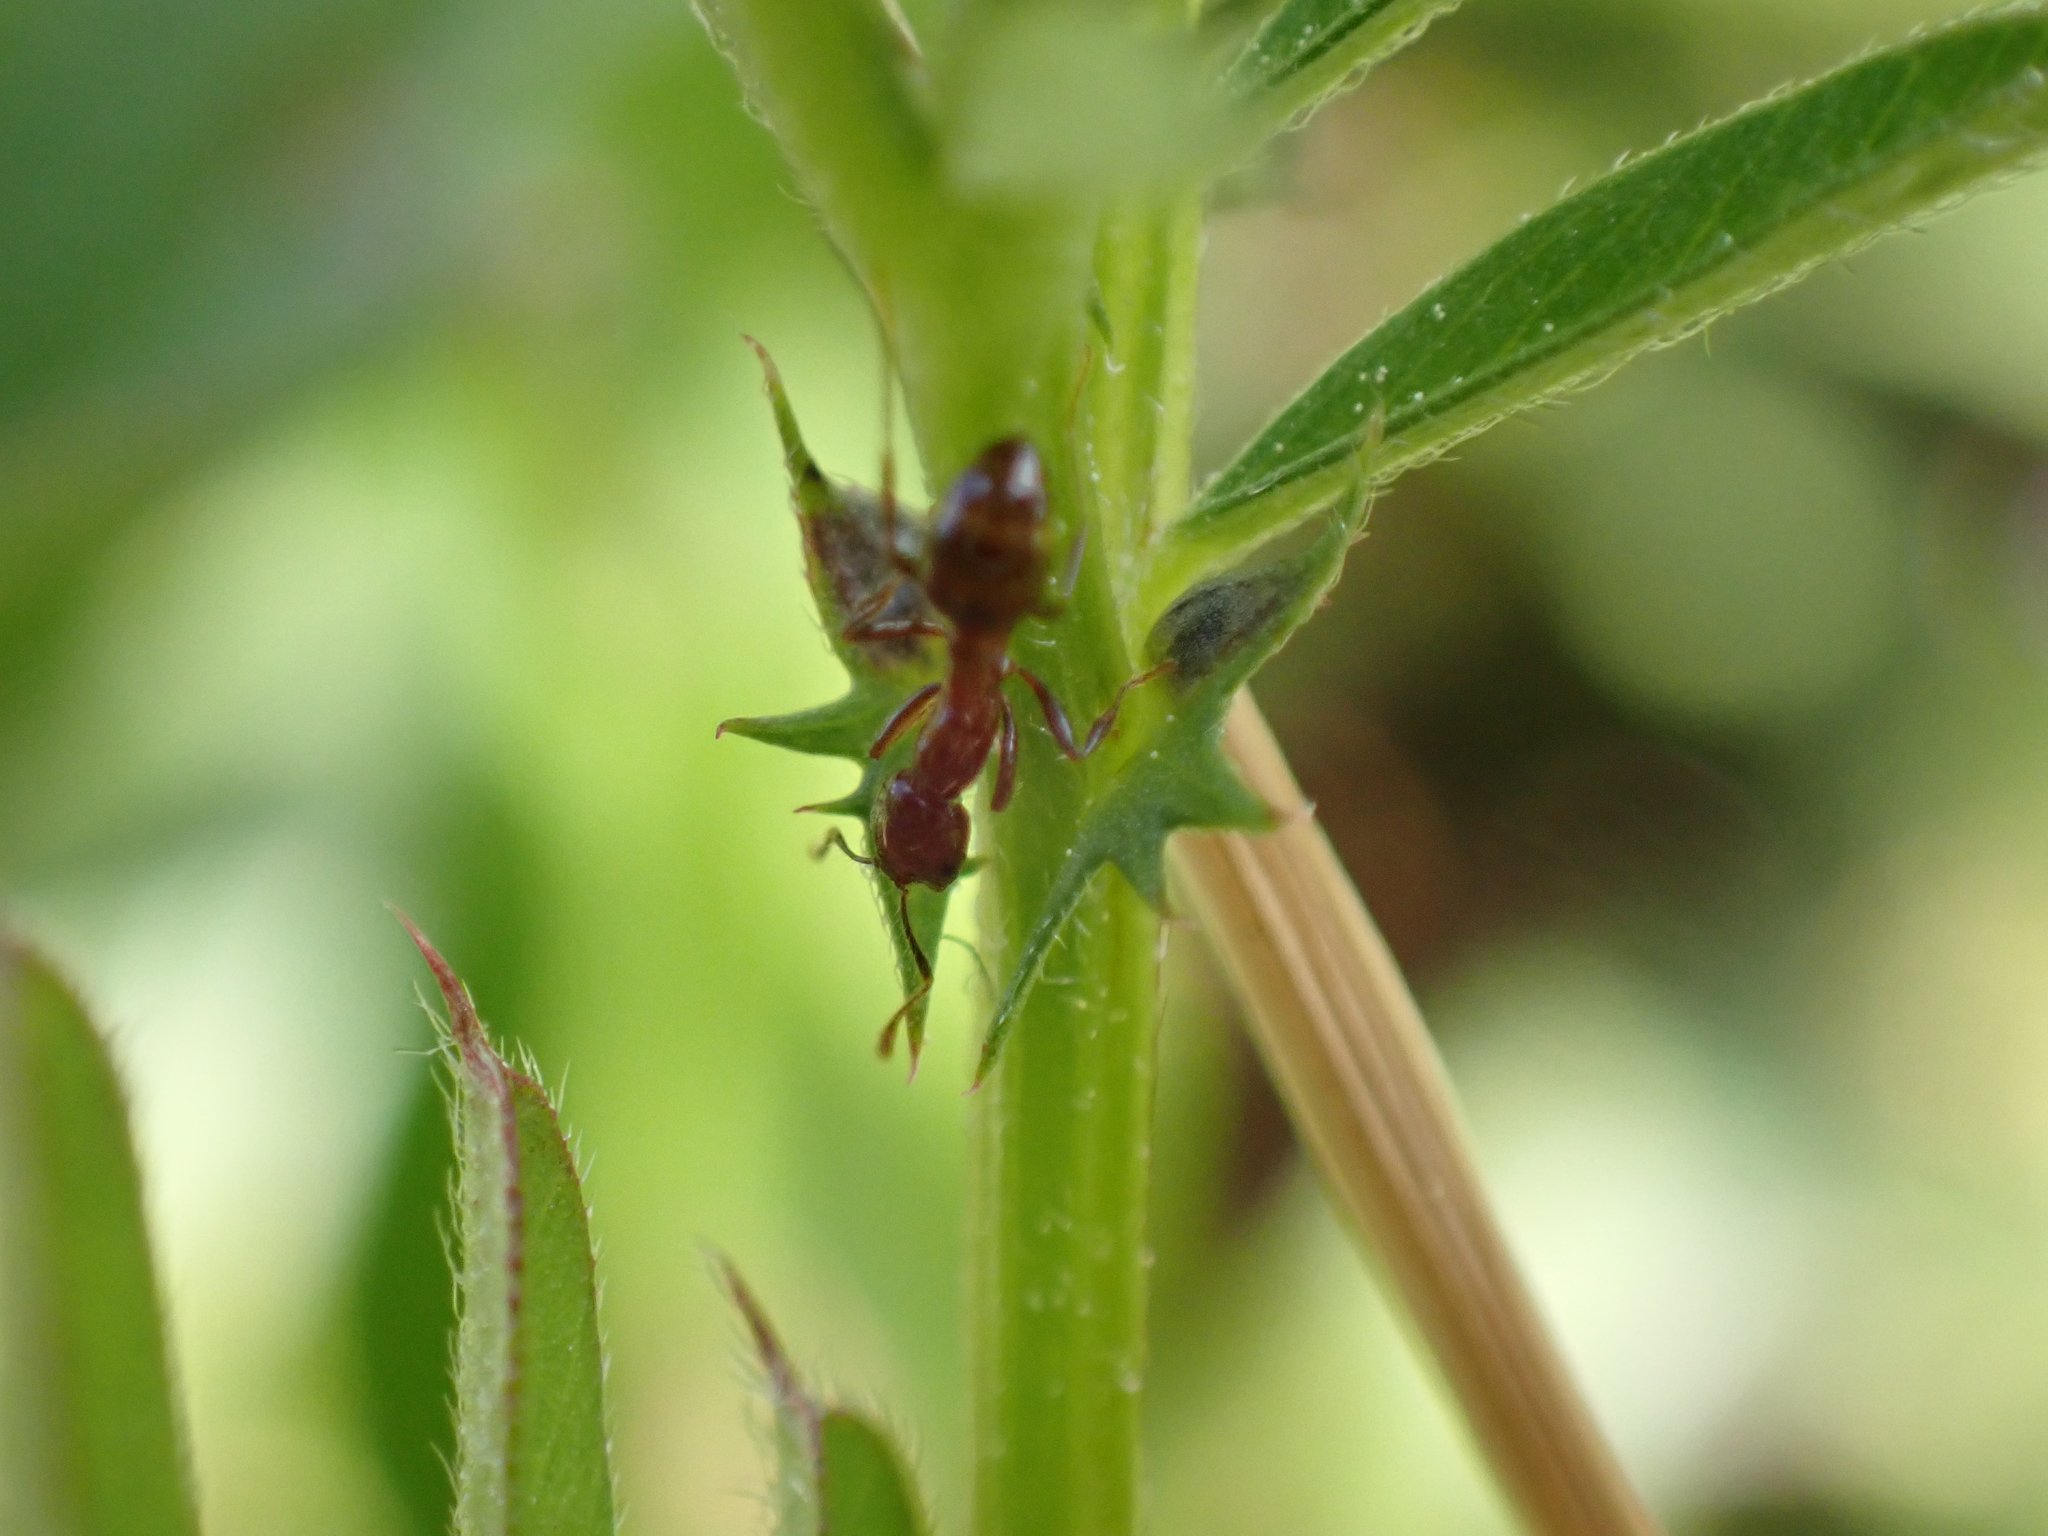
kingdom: Animalia
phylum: Arthropoda
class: Insecta
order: Hymenoptera
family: Formicidae
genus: Solenopsis
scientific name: Solenopsis
